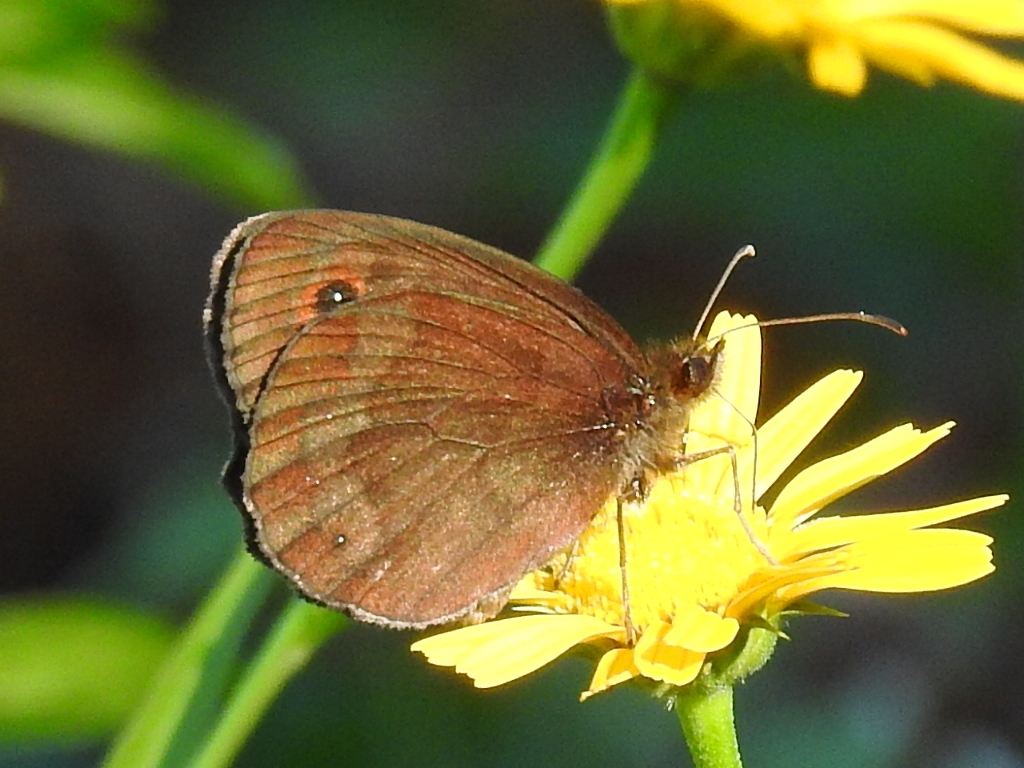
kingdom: Animalia
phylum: Arthropoda
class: Insecta
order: Lepidoptera
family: Nymphalidae
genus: Erebia
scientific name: Erebia aethiops
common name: Scotch argus
